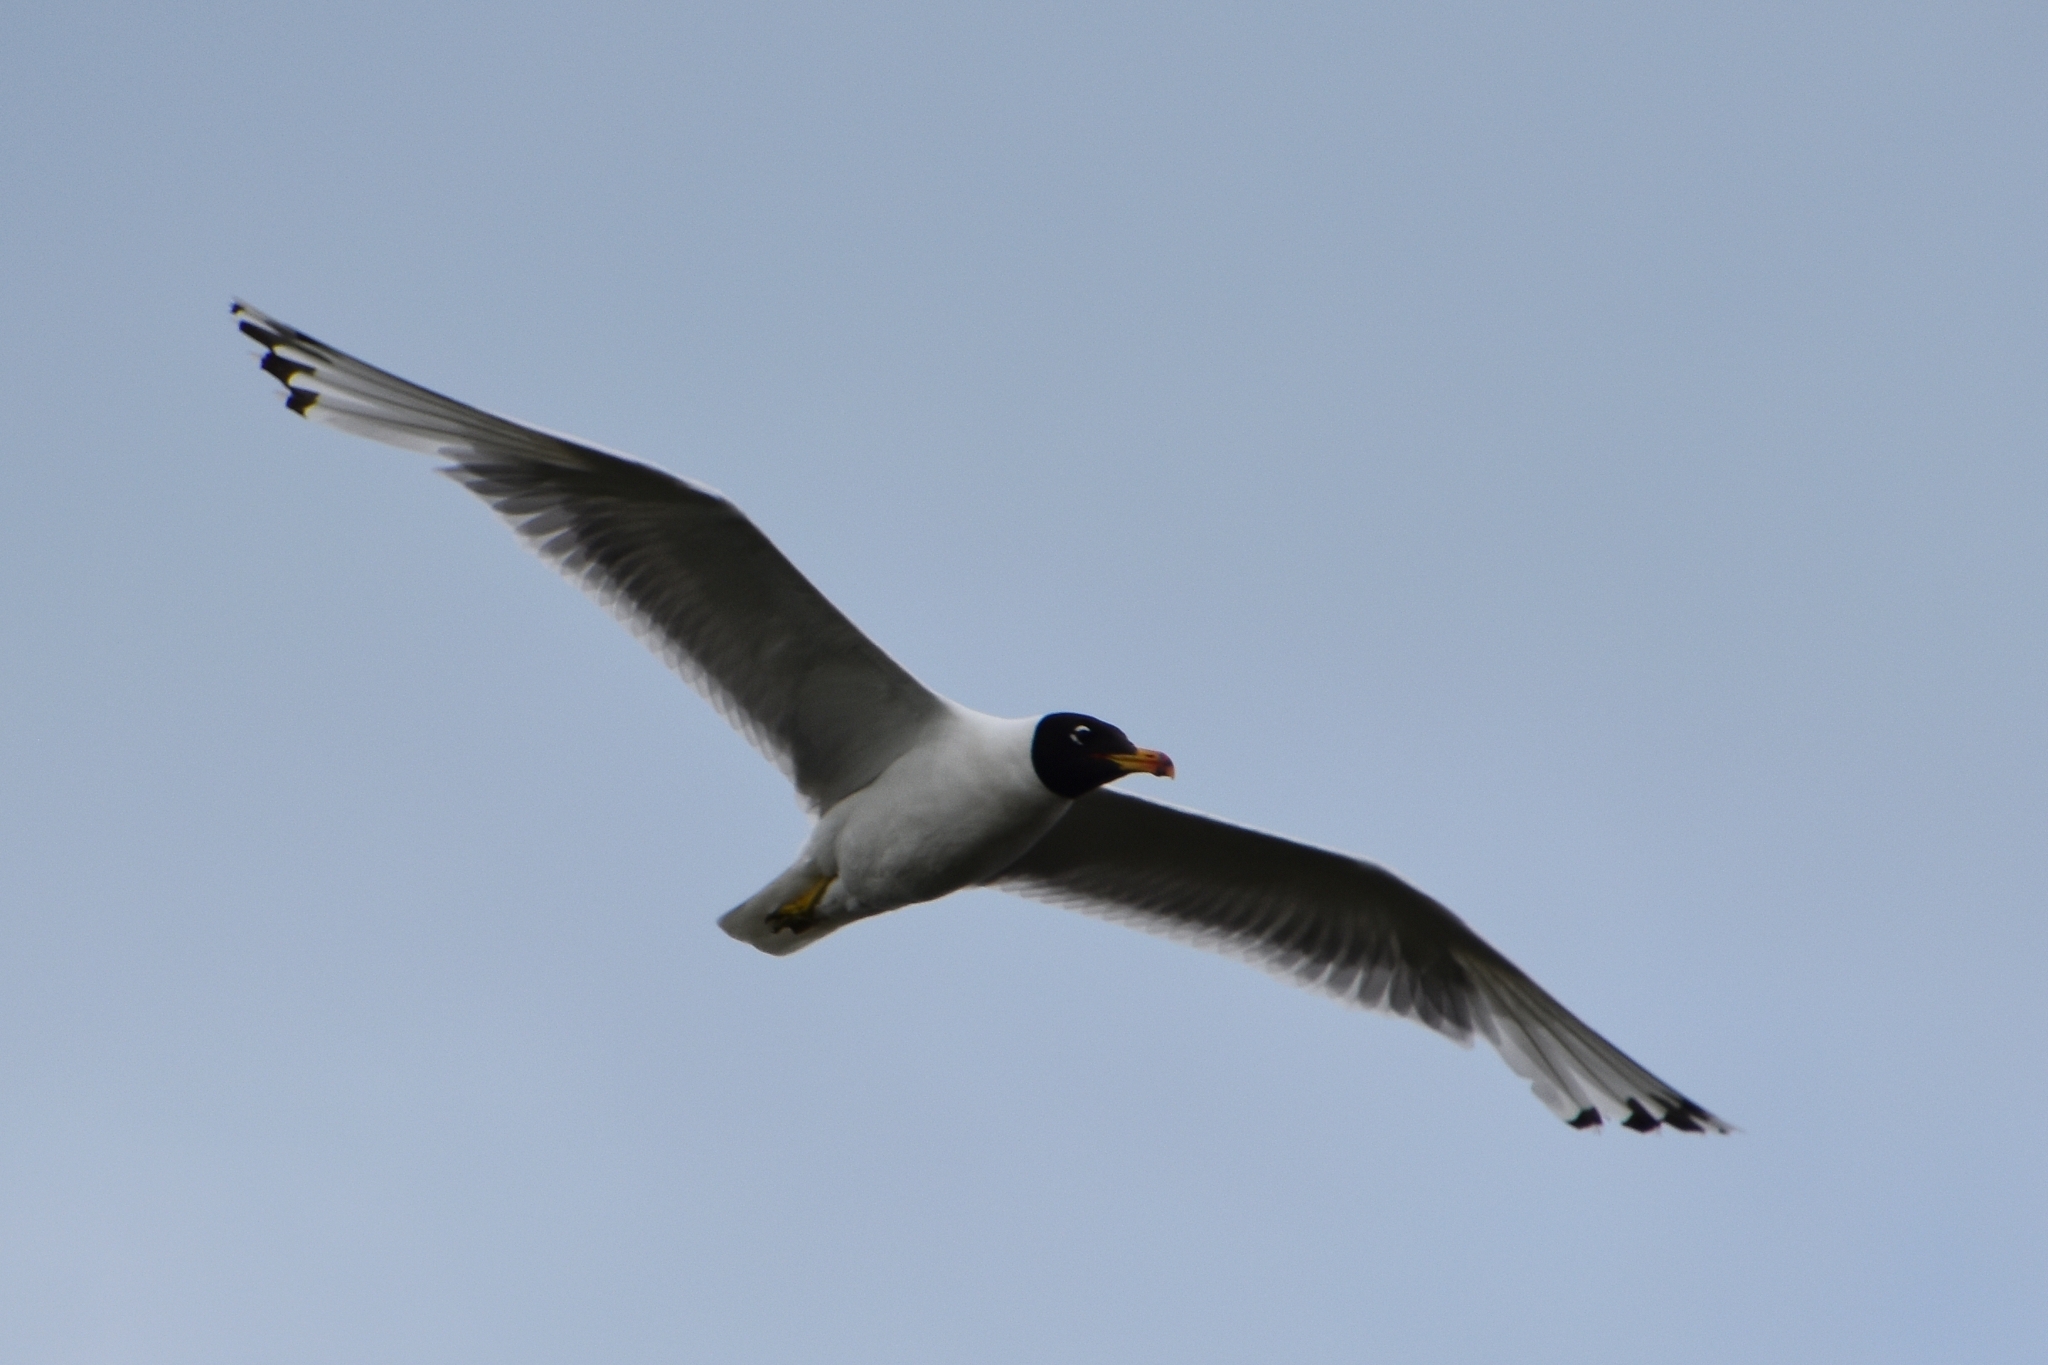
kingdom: Animalia
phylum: Chordata
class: Aves
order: Charadriiformes
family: Laridae
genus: Ichthyaetus
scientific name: Ichthyaetus ichthyaetus
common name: Pallas's gull
